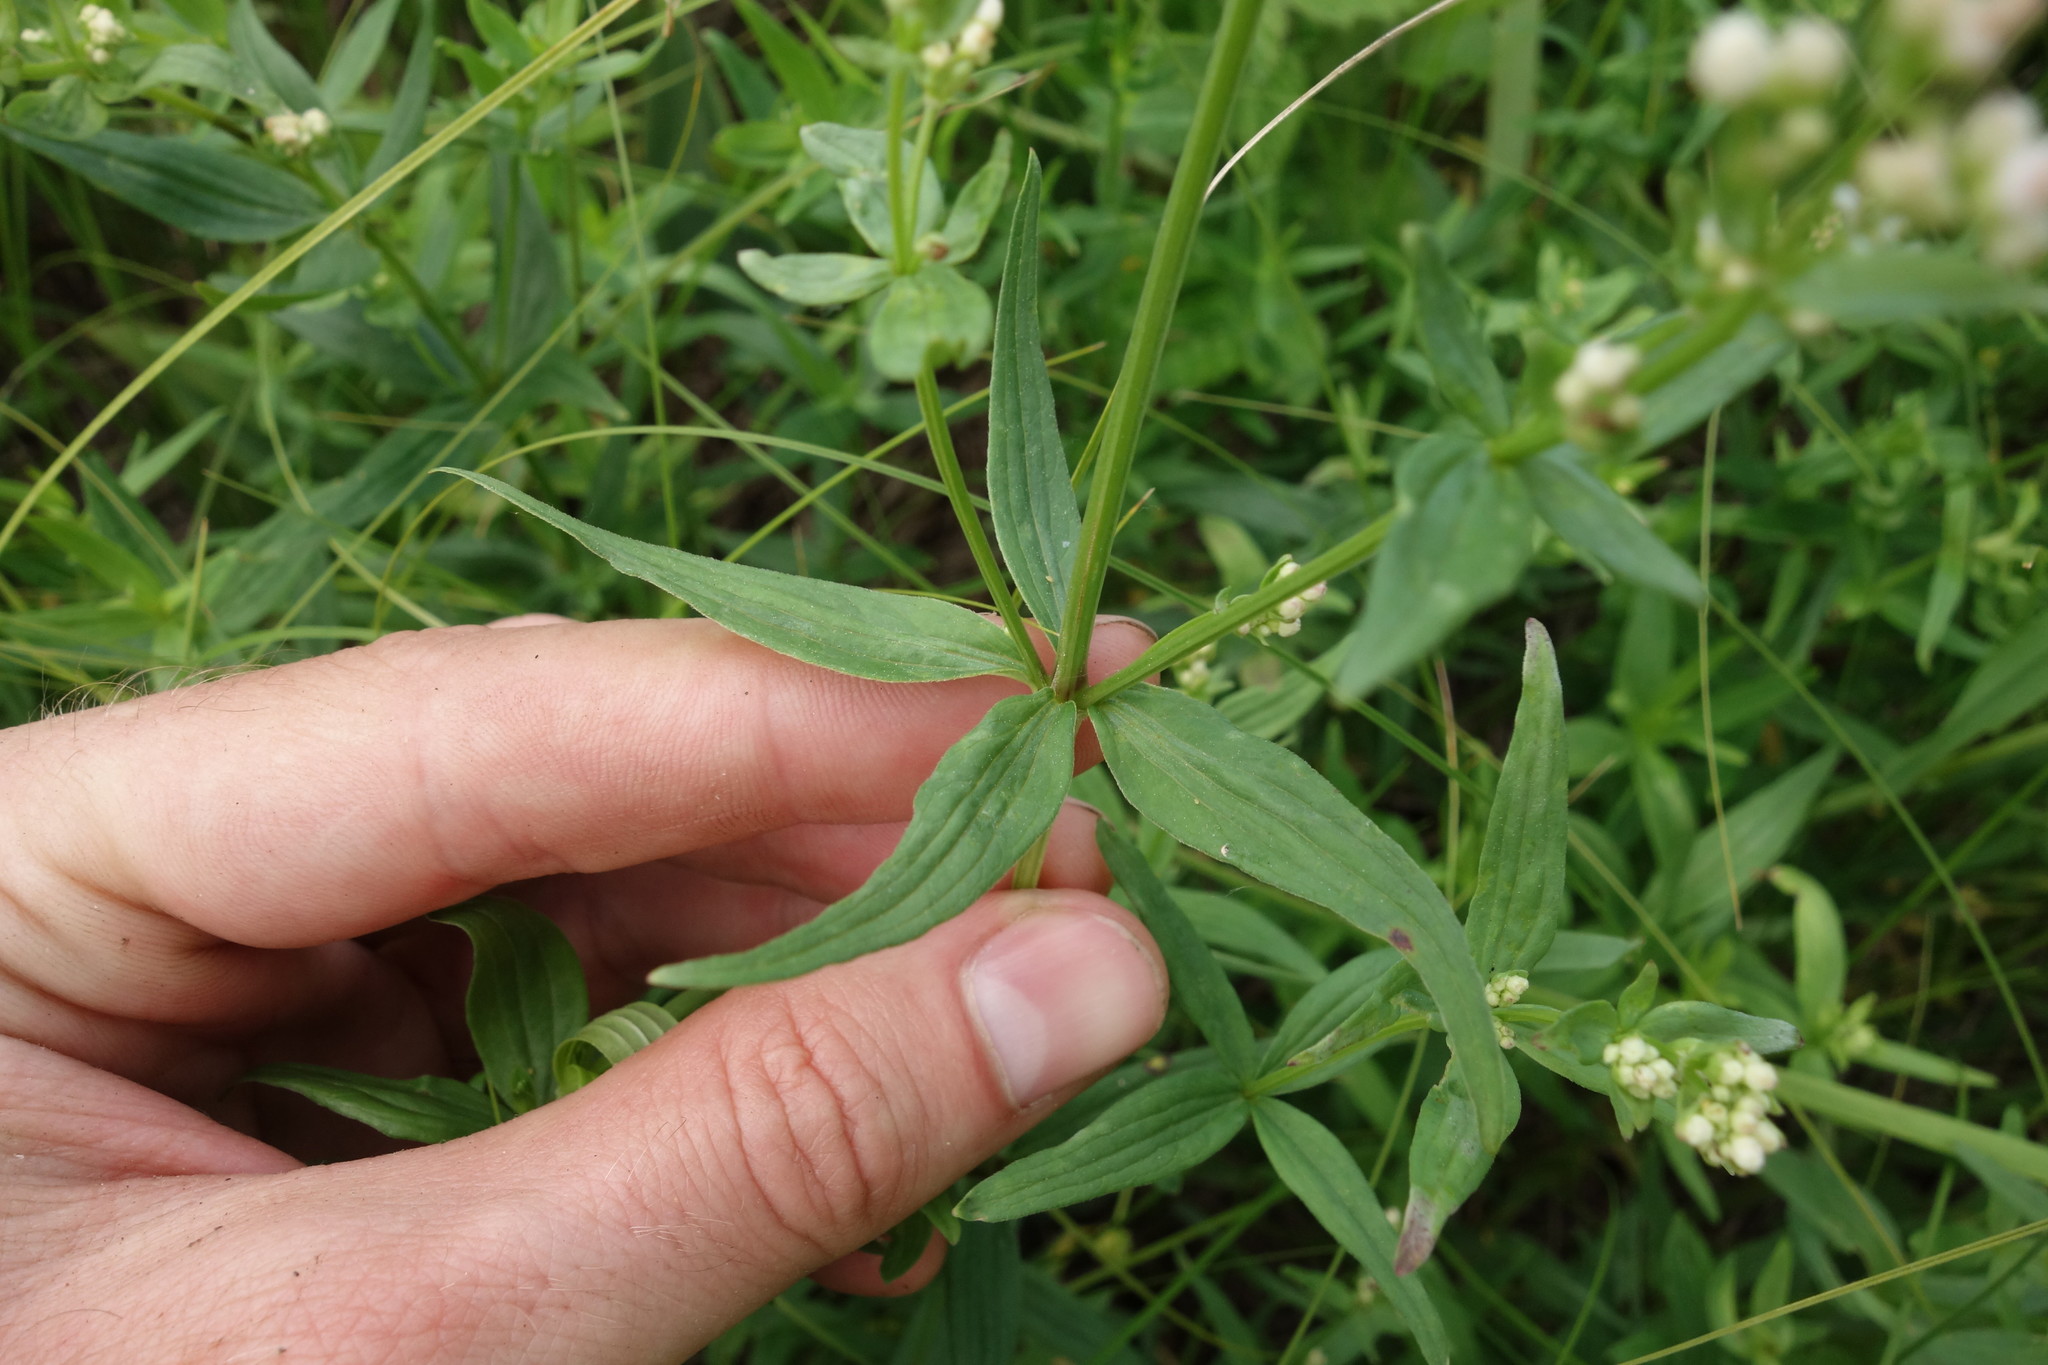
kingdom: Plantae
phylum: Tracheophyta
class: Magnoliopsida
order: Gentianales
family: Rubiaceae
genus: Galium
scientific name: Galium boreale
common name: Northern bedstraw
